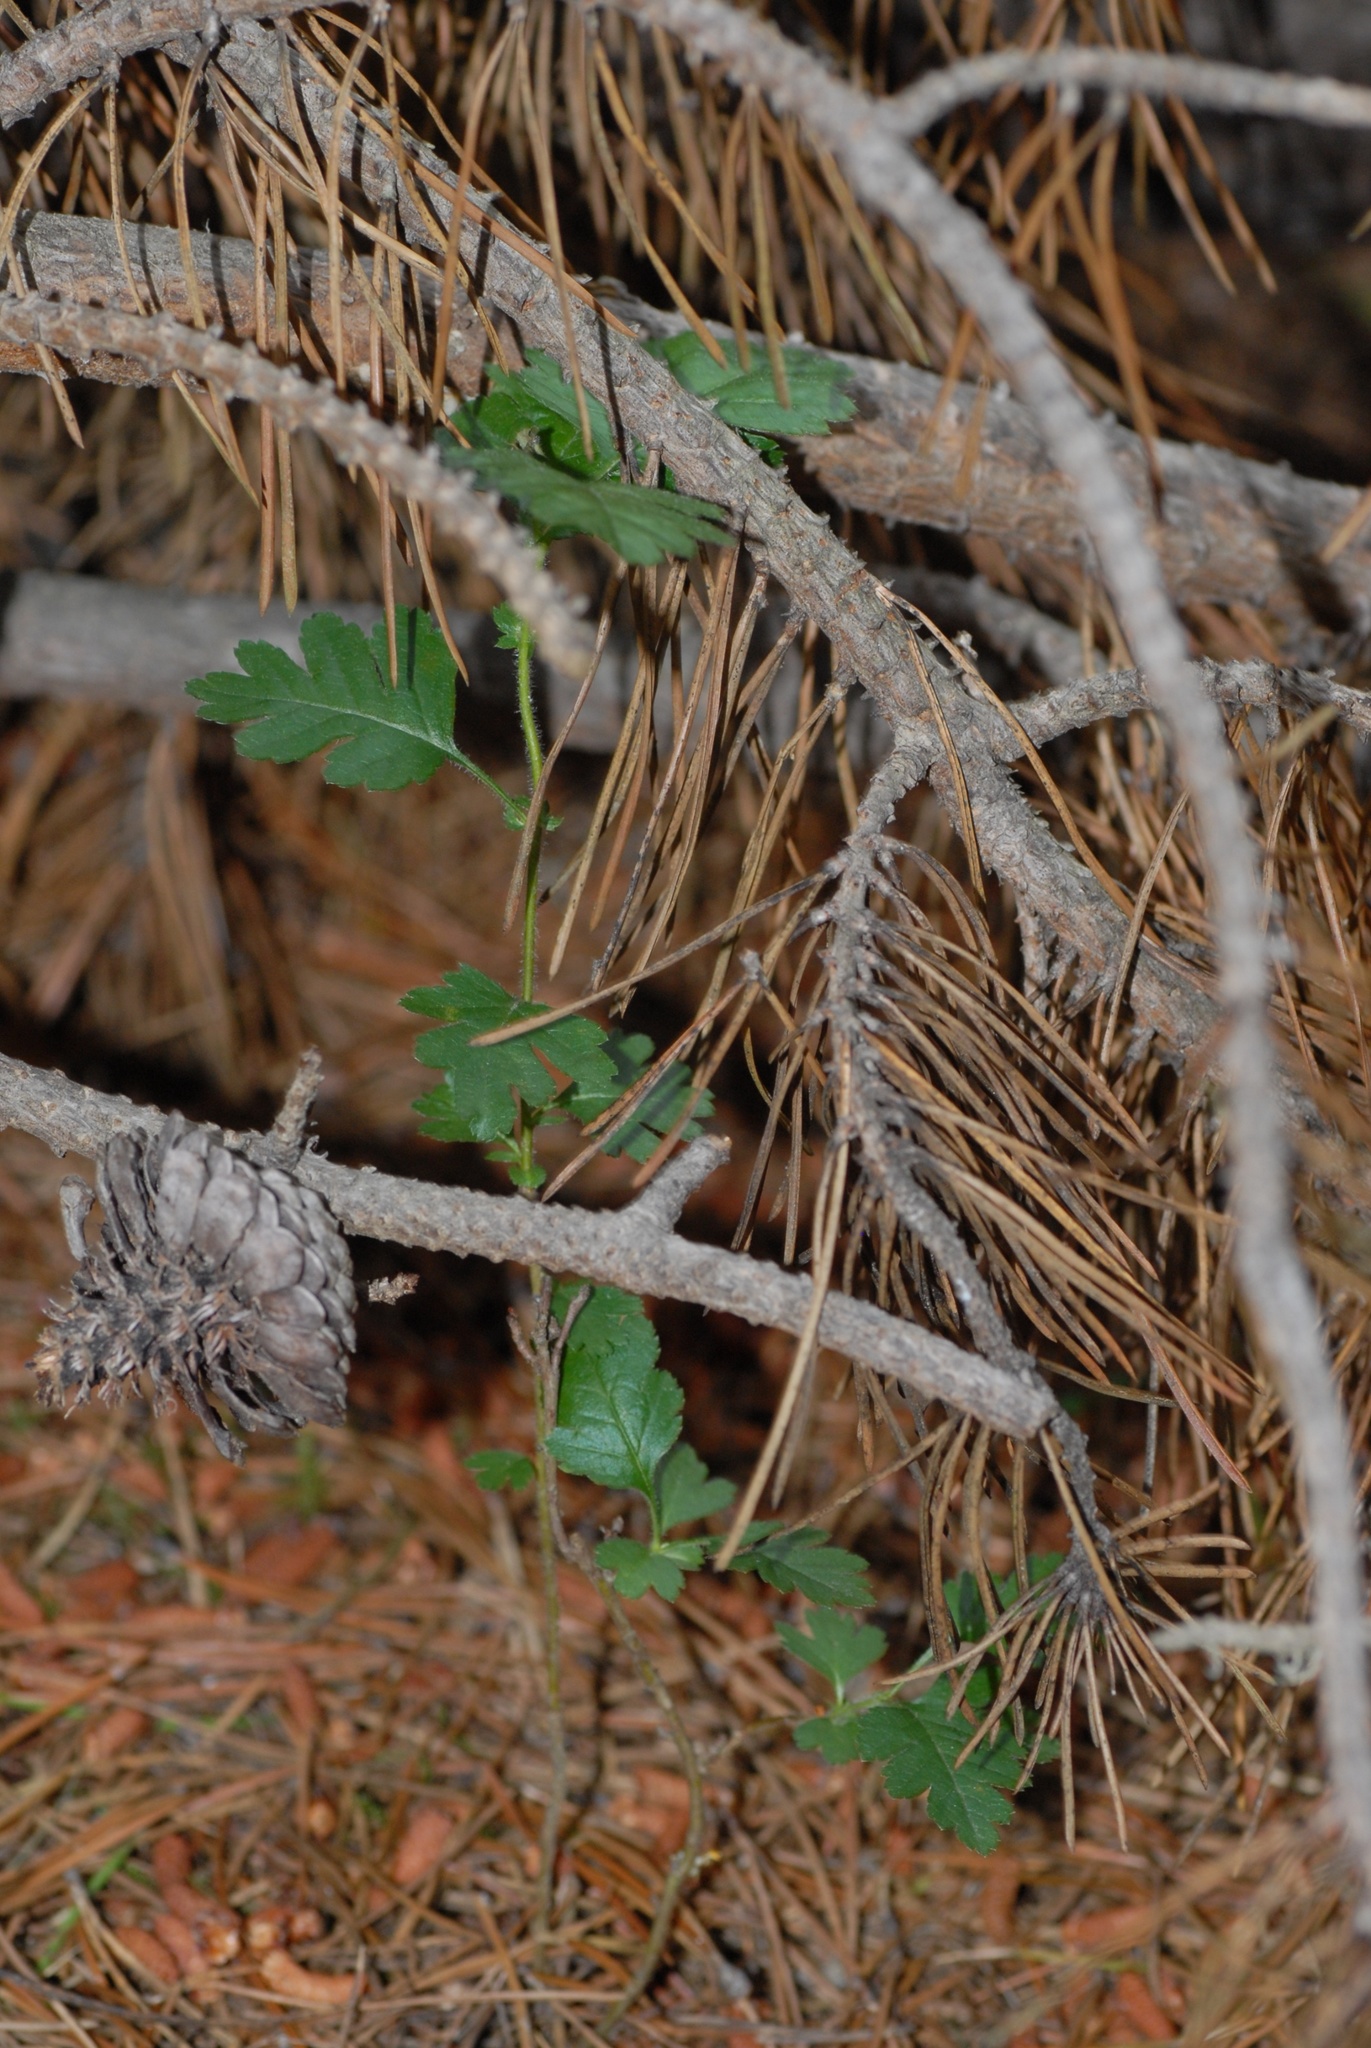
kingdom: Plantae
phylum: Tracheophyta
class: Magnoliopsida
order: Rosales
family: Rosaceae
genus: Crataegus
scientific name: Crataegus monogyna
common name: Hawthorn
